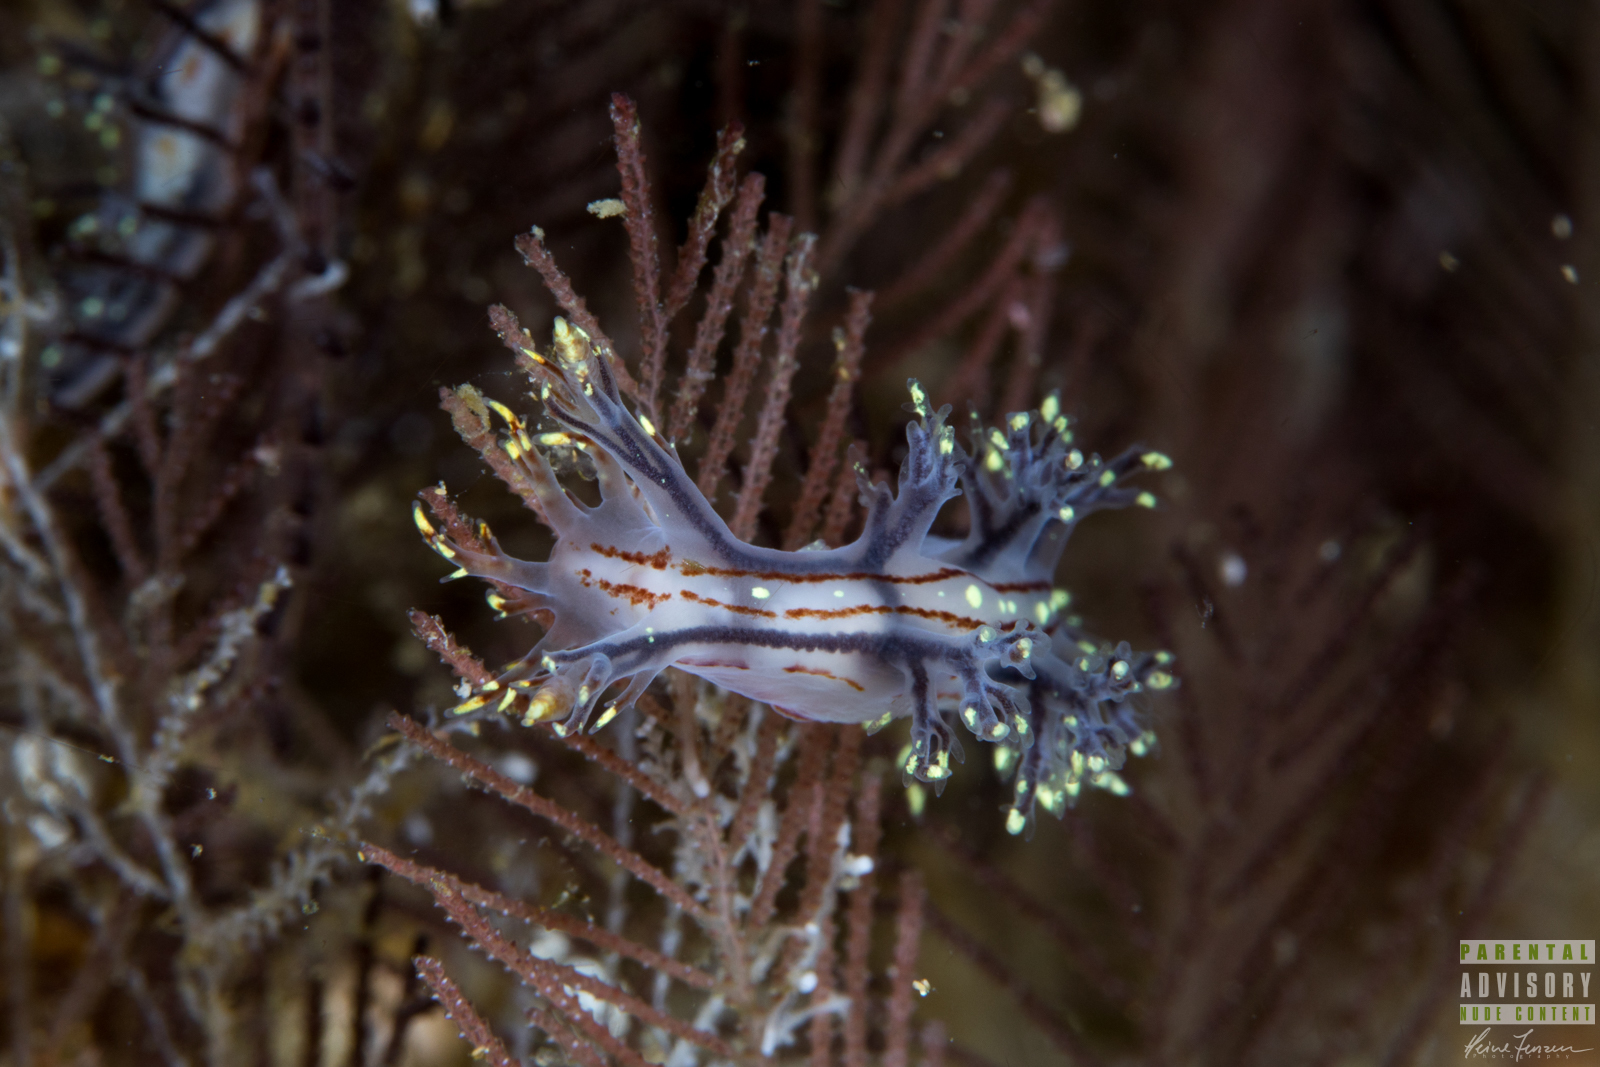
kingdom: Animalia
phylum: Mollusca
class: Gastropoda
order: Nudibranchia
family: Dendronotidae
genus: Dendronotus
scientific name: Dendronotus yrjargul
